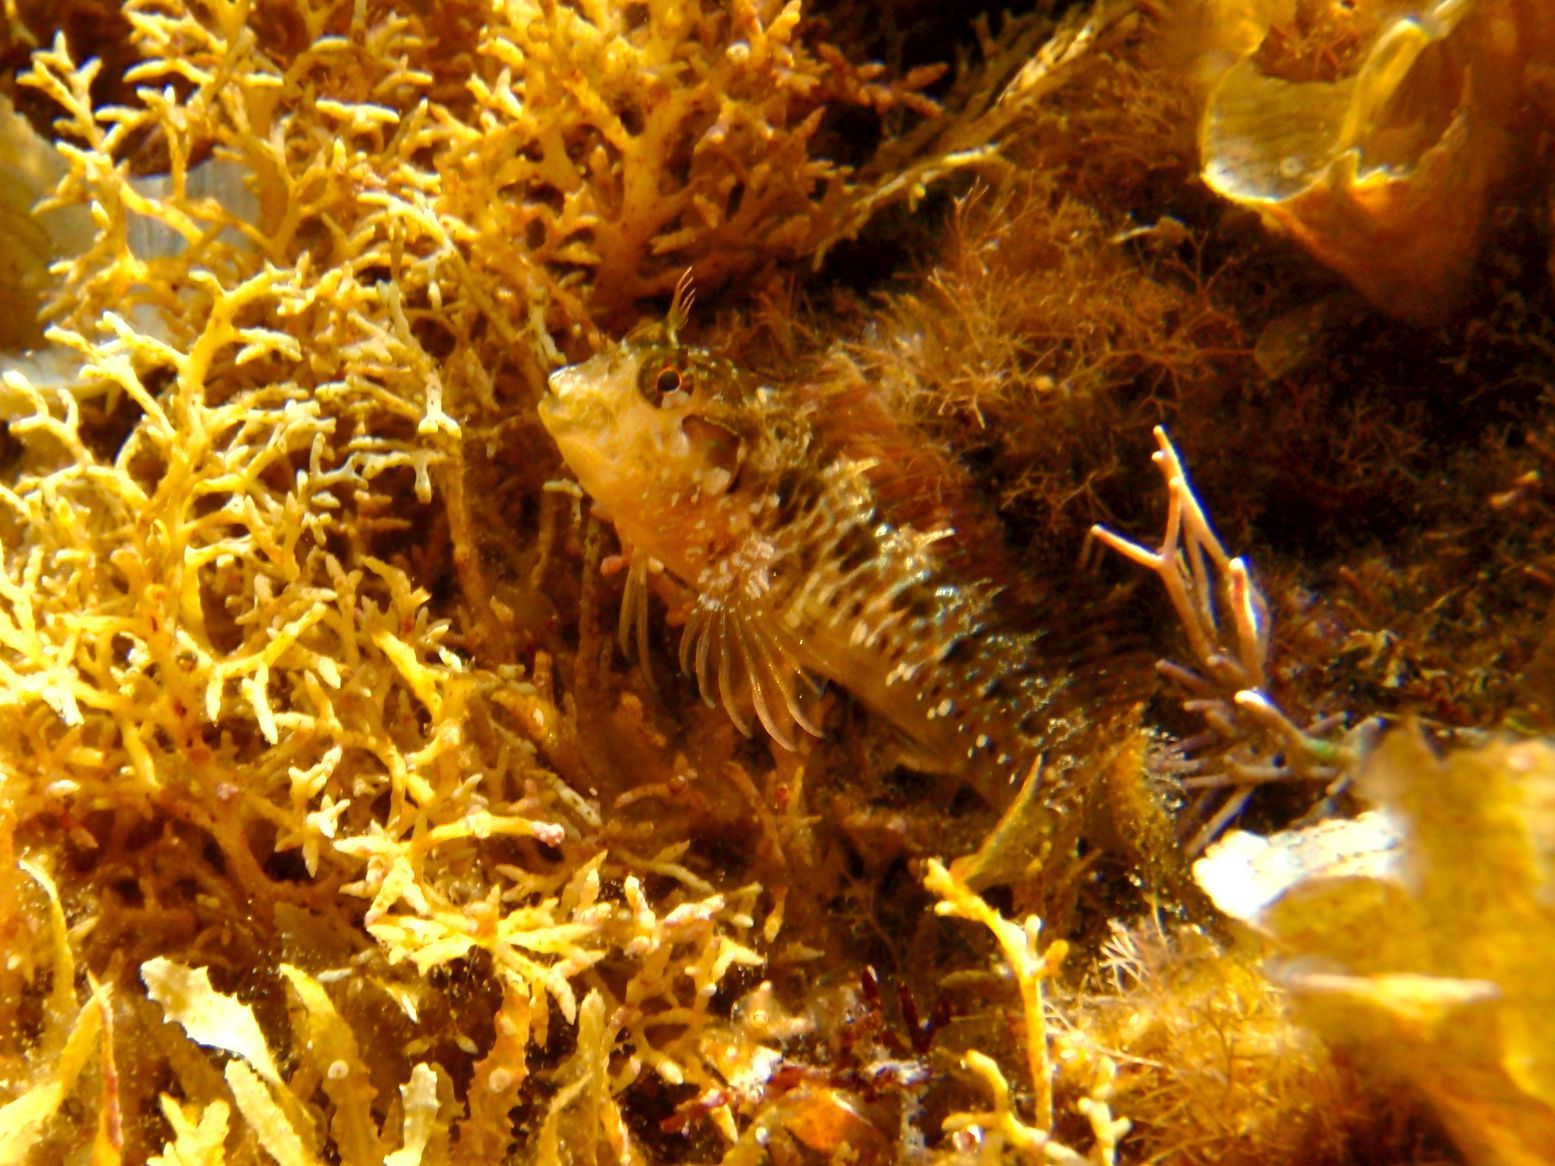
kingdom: Animalia
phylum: Chordata
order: Perciformes
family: Blenniidae
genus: Parablennius
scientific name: Parablennius incognitus
